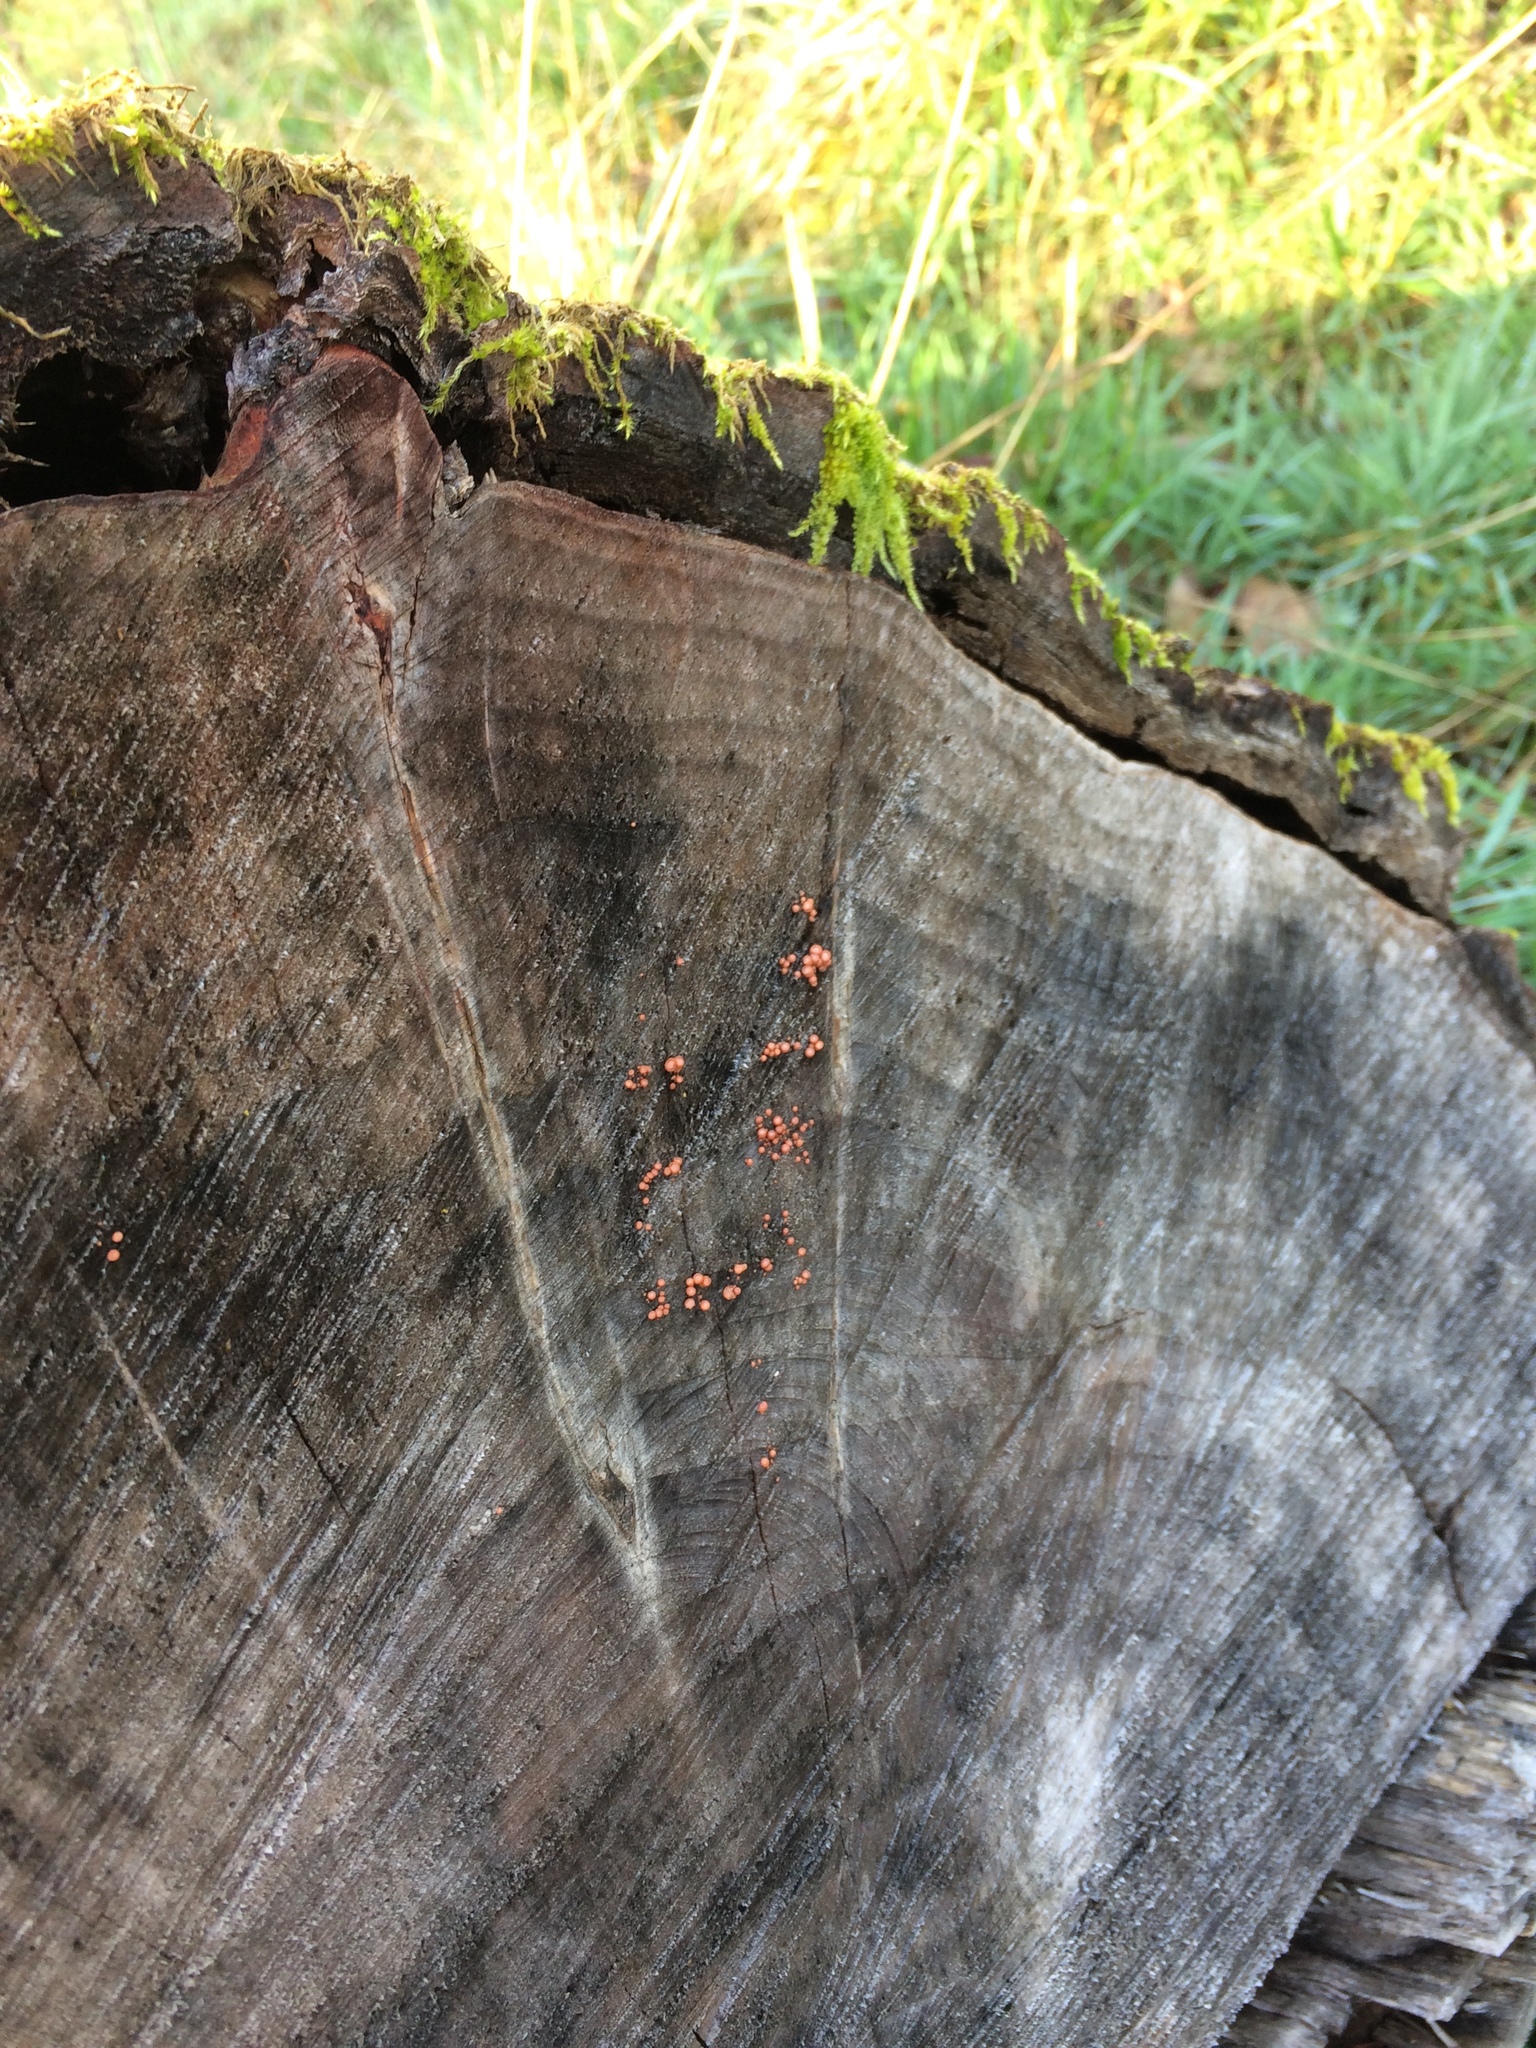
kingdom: Fungi
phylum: Basidiomycota
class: Agaricomycetes
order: Sebacinales
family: Sebacinaceae
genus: Ditangium
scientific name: Ditangium cerasi
